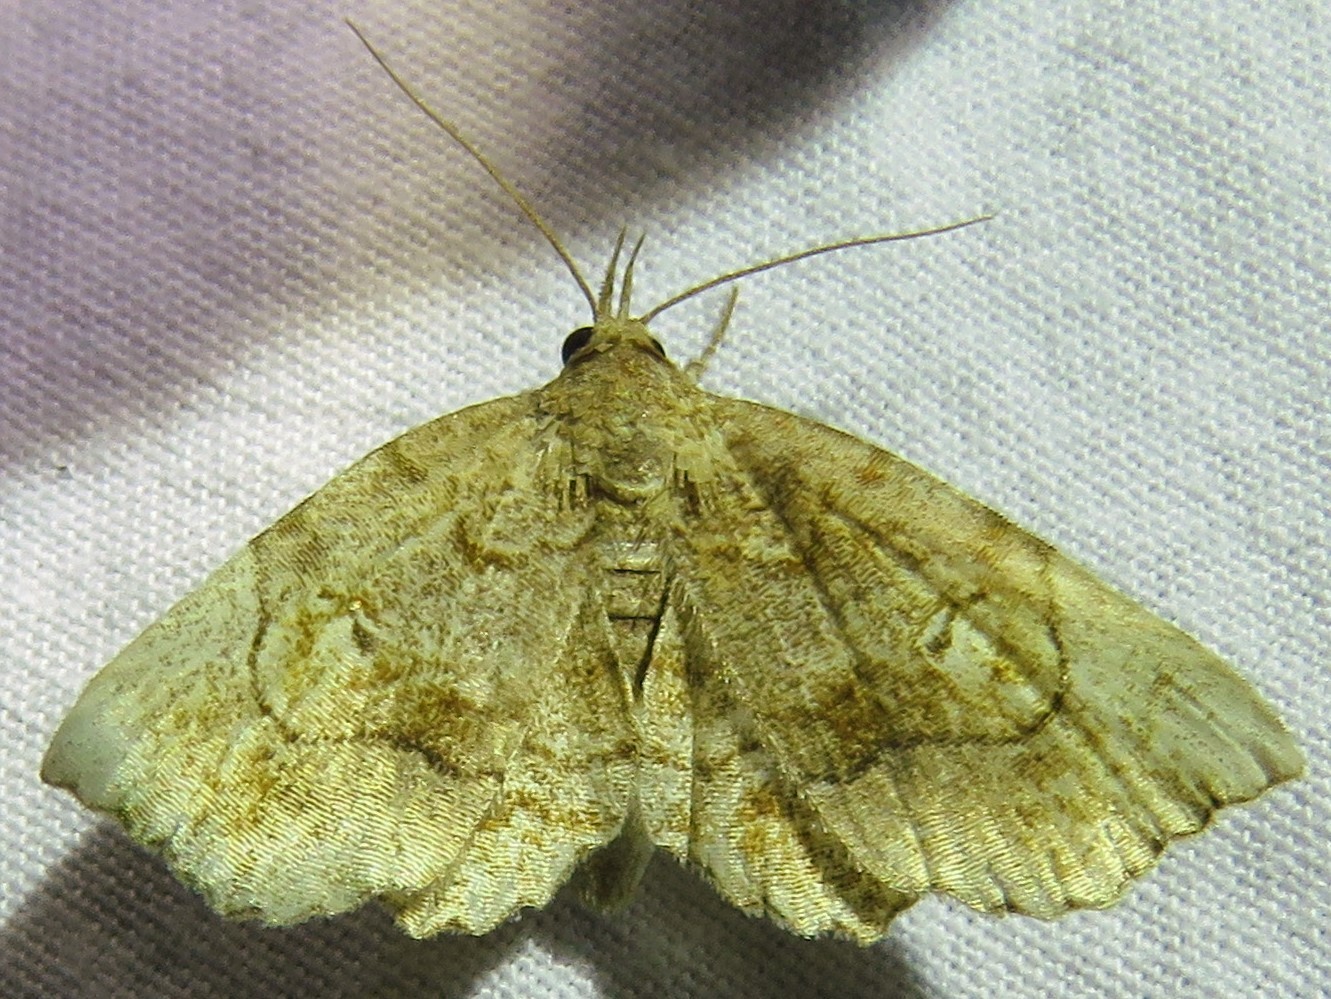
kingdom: Animalia
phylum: Arthropoda
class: Insecta
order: Lepidoptera
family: Erebidae
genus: Pangrapta
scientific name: Pangrapta decoralis
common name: Decorated owlet
